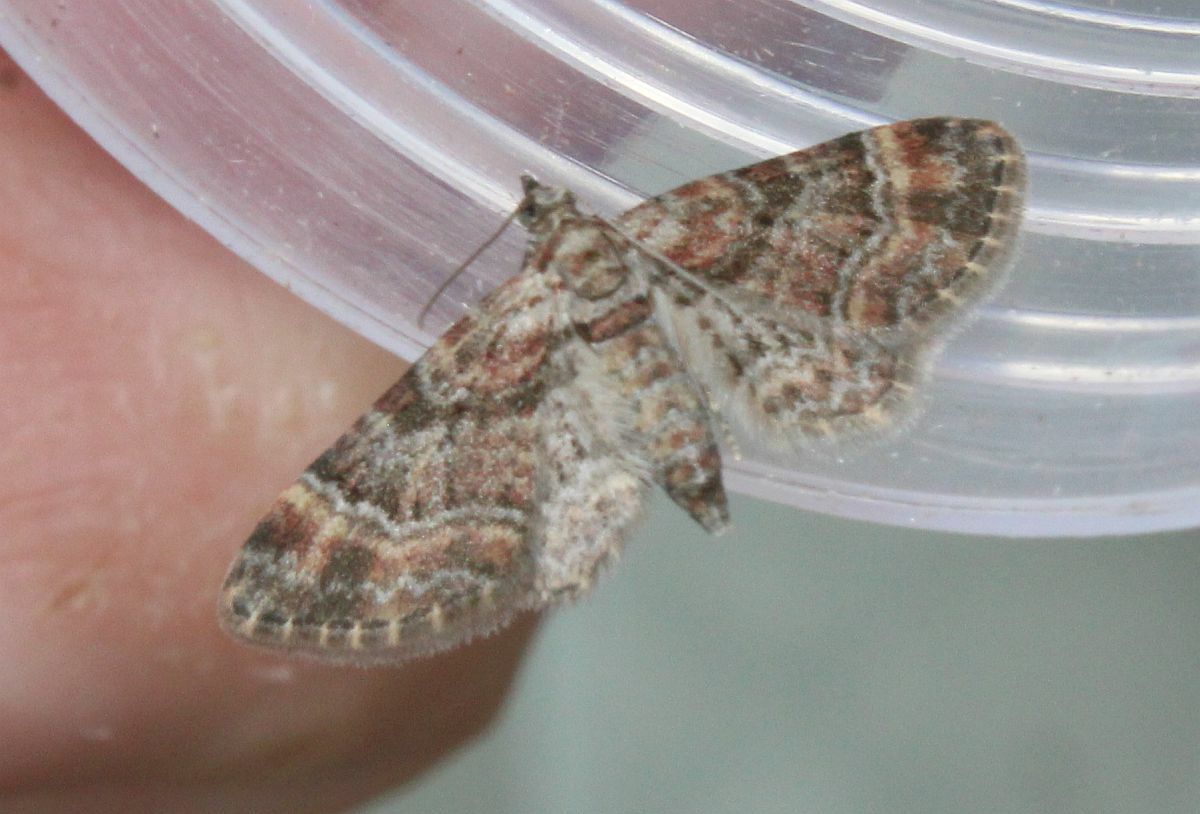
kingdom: Animalia
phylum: Arthropoda
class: Insecta
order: Lepidoptera
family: Geometridae
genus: Gymnoscelis
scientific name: Gymnoscelis rufifasciata
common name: Double-striped pug
